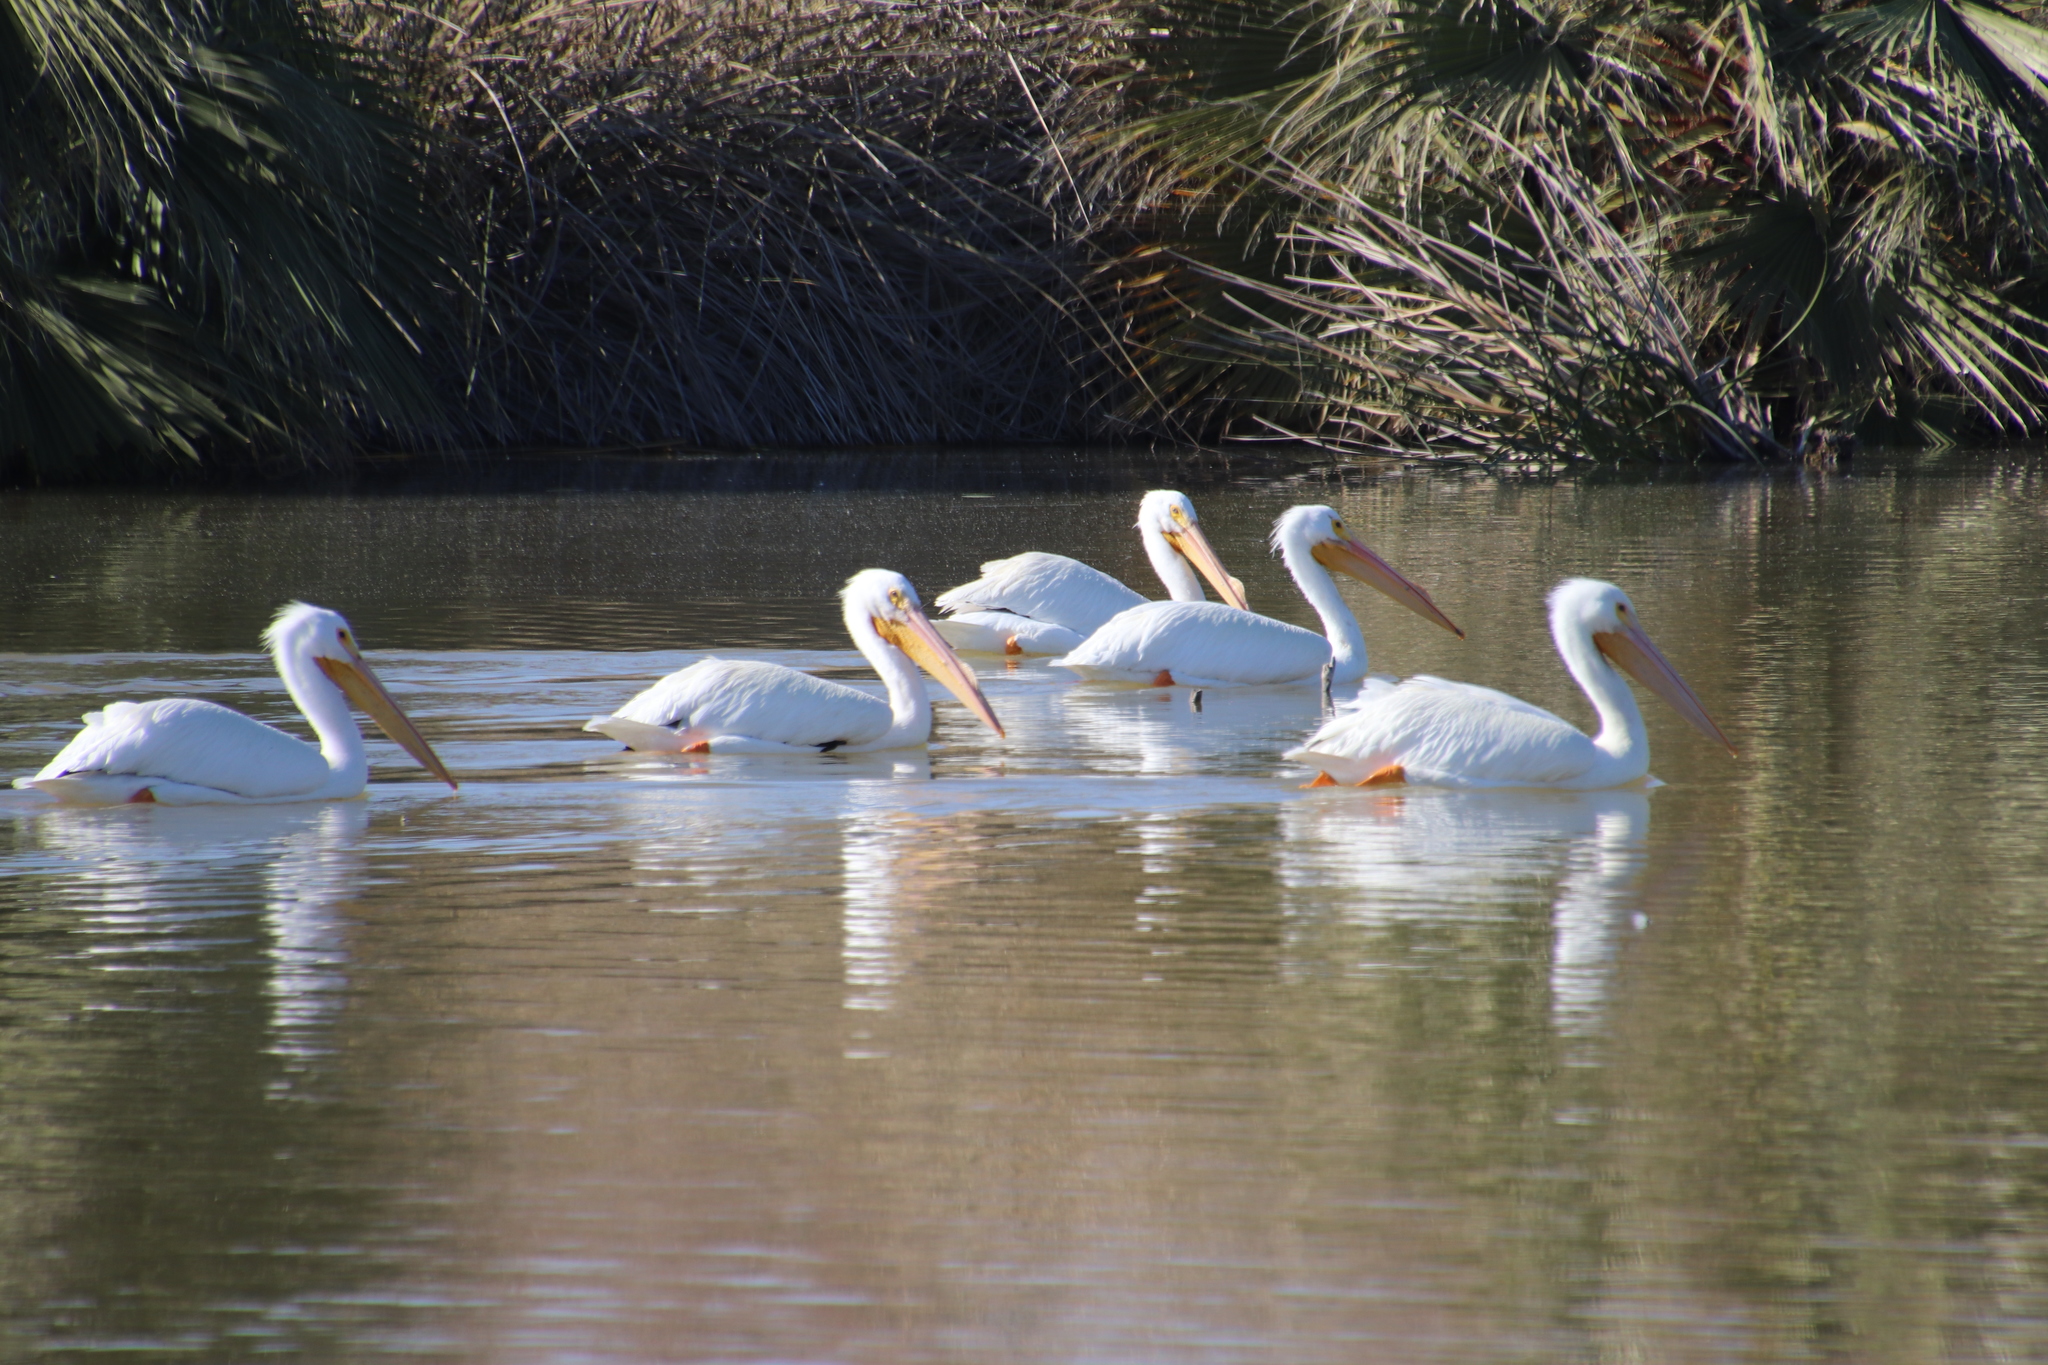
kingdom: Animalia
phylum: Chordata
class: Aves
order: Pelecaniformes
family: Pelecanidae
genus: Pelecanus
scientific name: Pelecanus erythrorhynchos
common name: American white pelican
